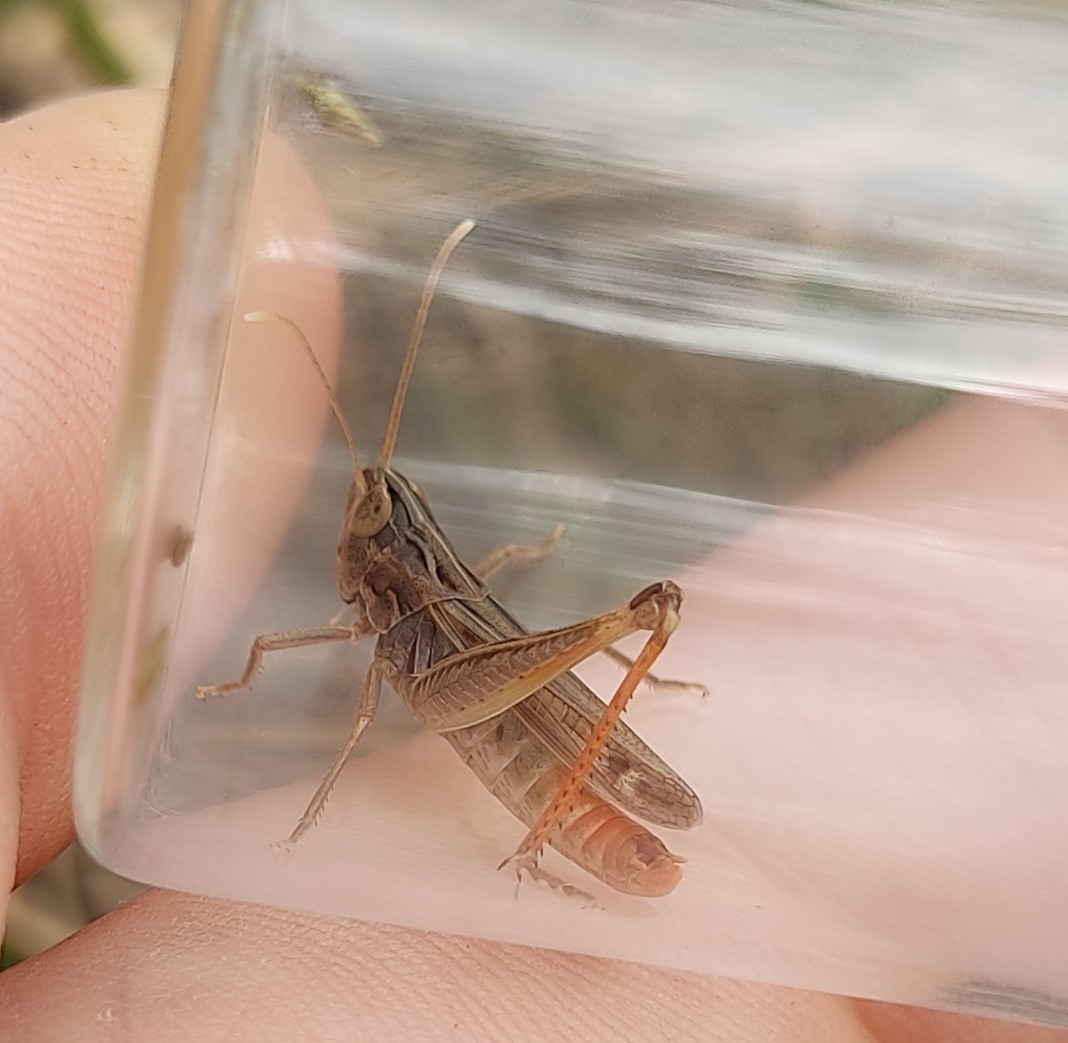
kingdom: Animalia
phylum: Arthropoda
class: Insecta
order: Orthoptera
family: Acrididae
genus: Stenobothrus
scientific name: Stenobothrus nigromaculatus
